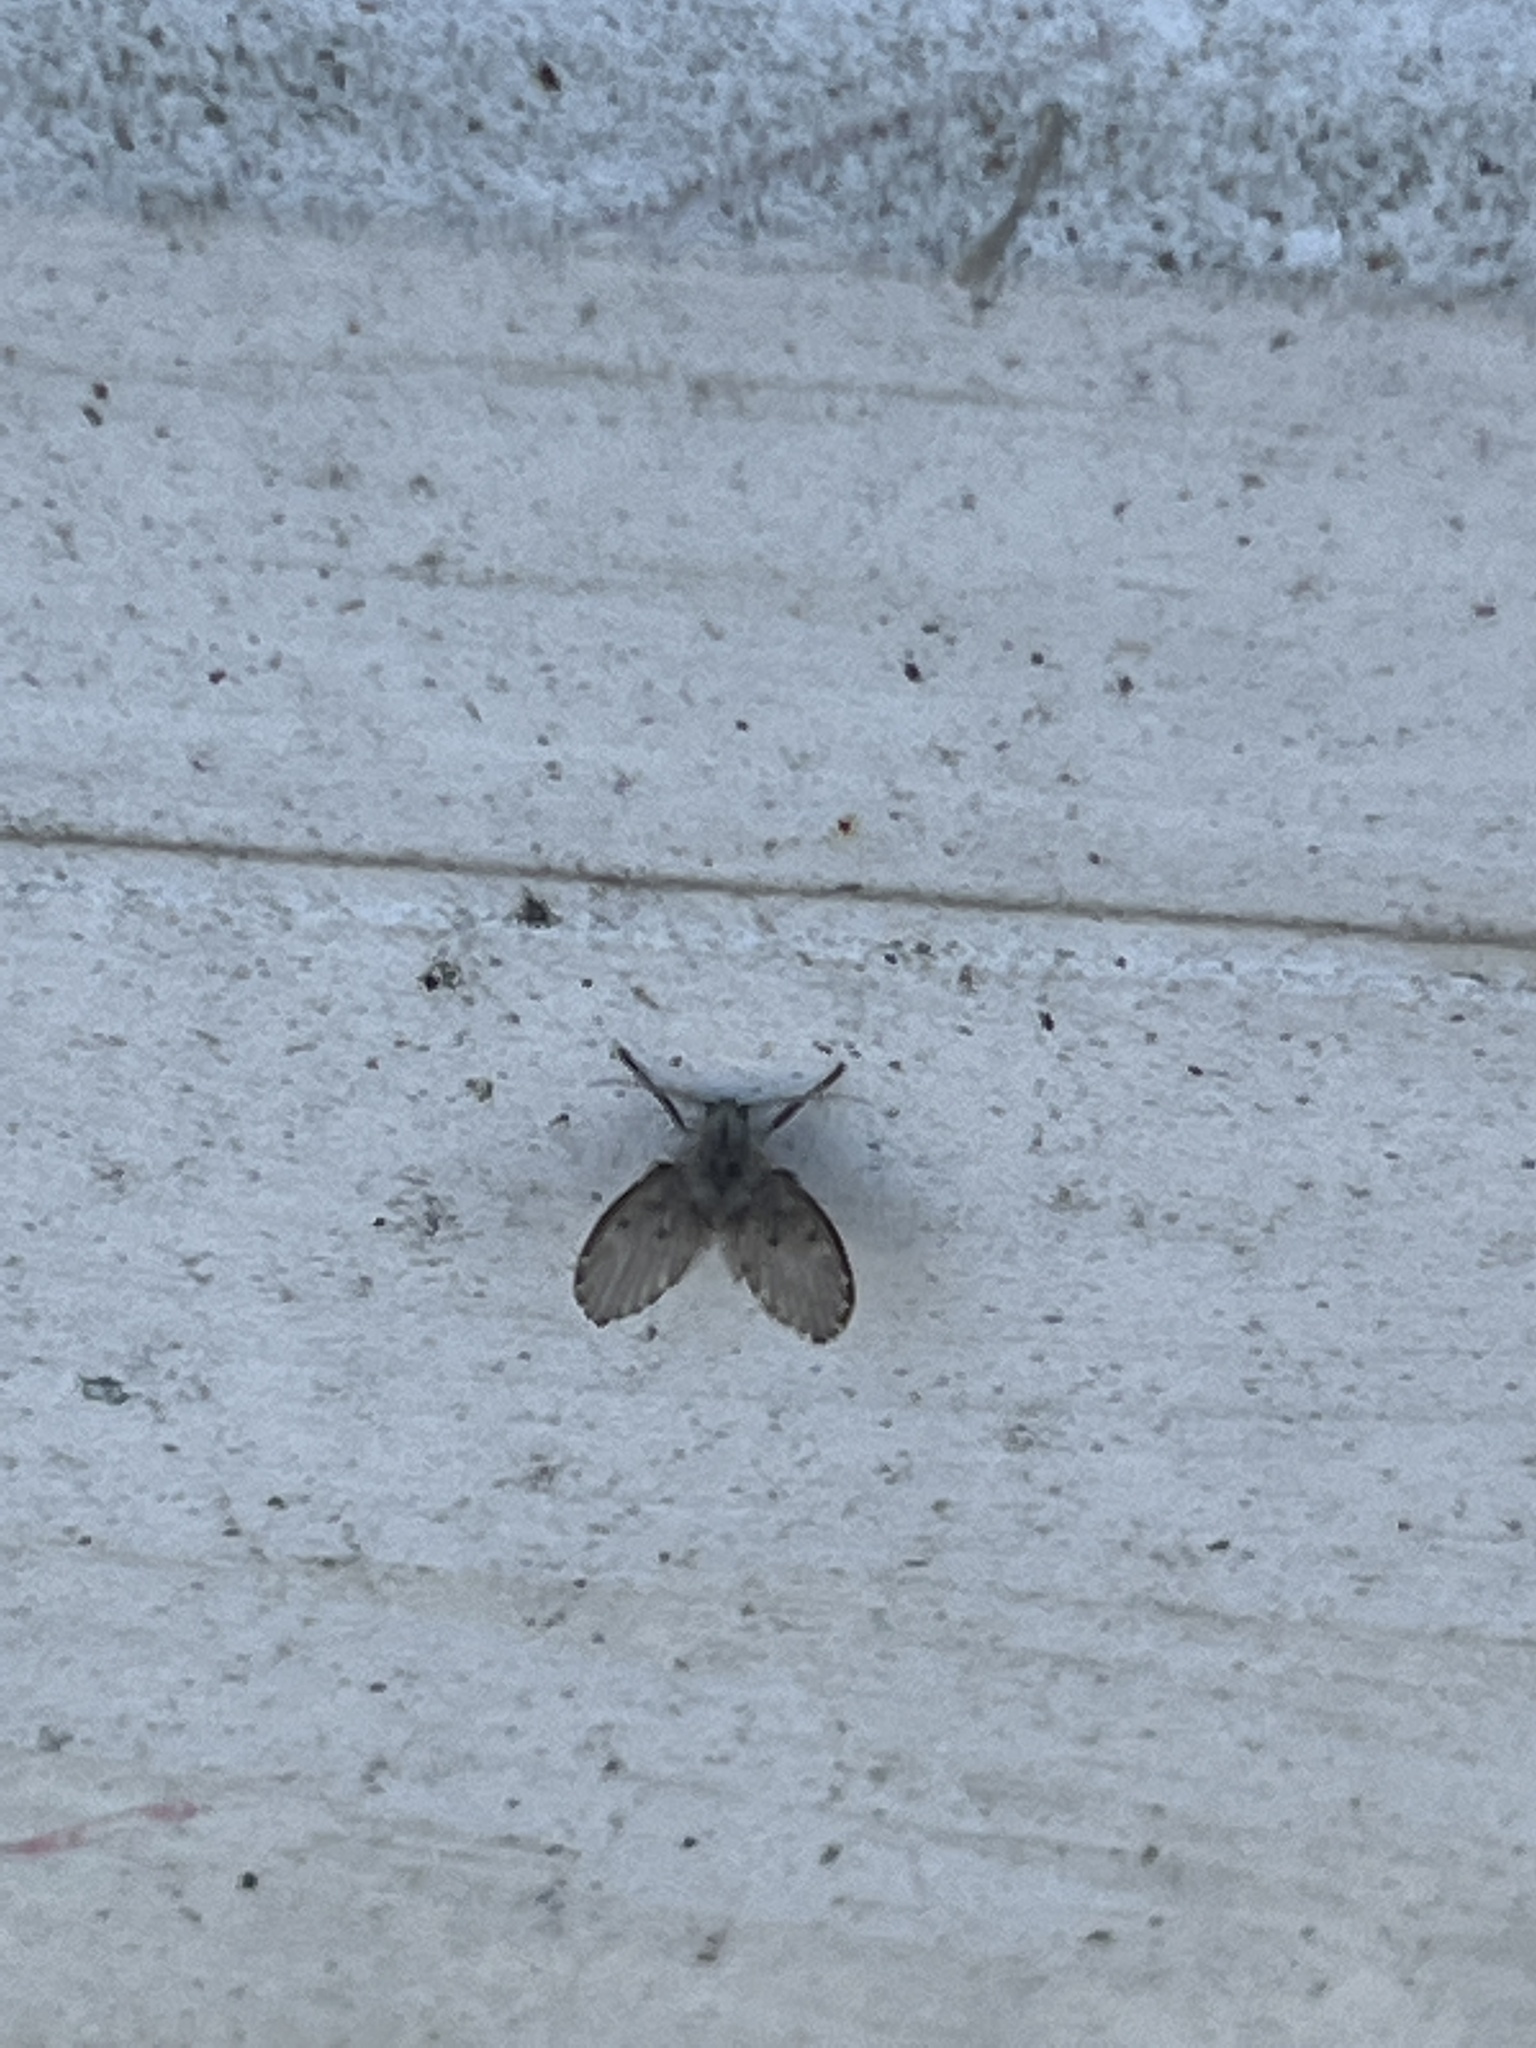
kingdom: Animalia
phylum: Arthropoda
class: Insecta
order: Diptera
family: Psychodidae
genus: Clogmia
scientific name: Clogmia albipunctatus
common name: White-spotted moth fly
